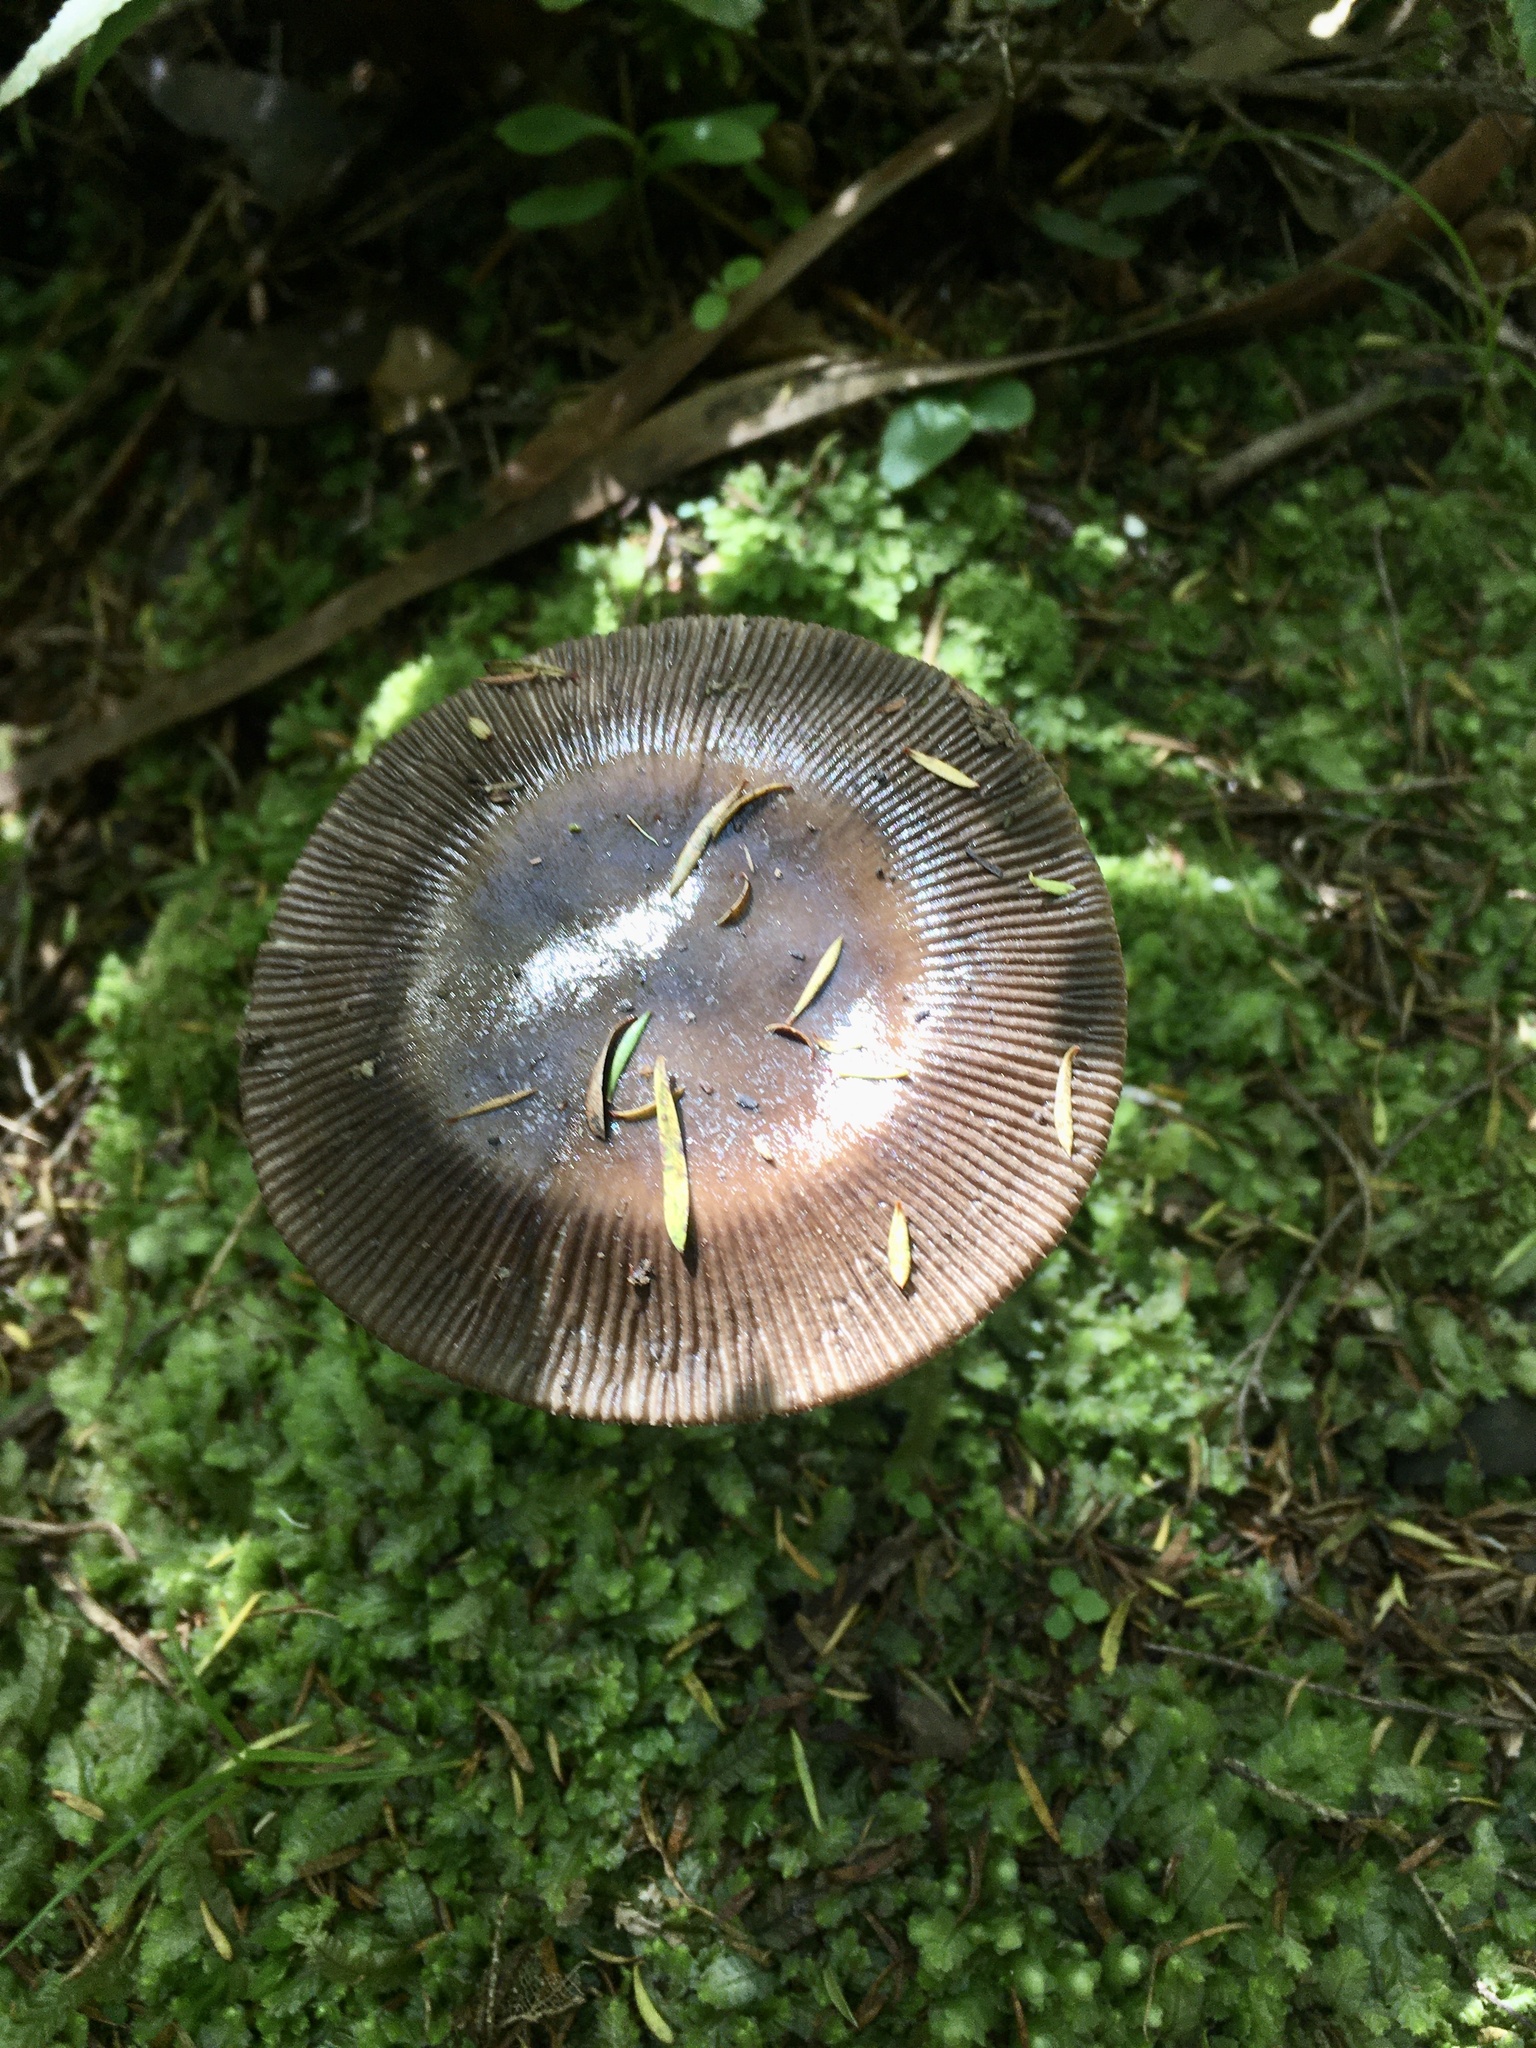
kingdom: Fungi
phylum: Basidiomycota
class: Agaricomycetes
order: Agaricales
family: Amanitaceae
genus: Amanita
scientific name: Amanita pekeoides
